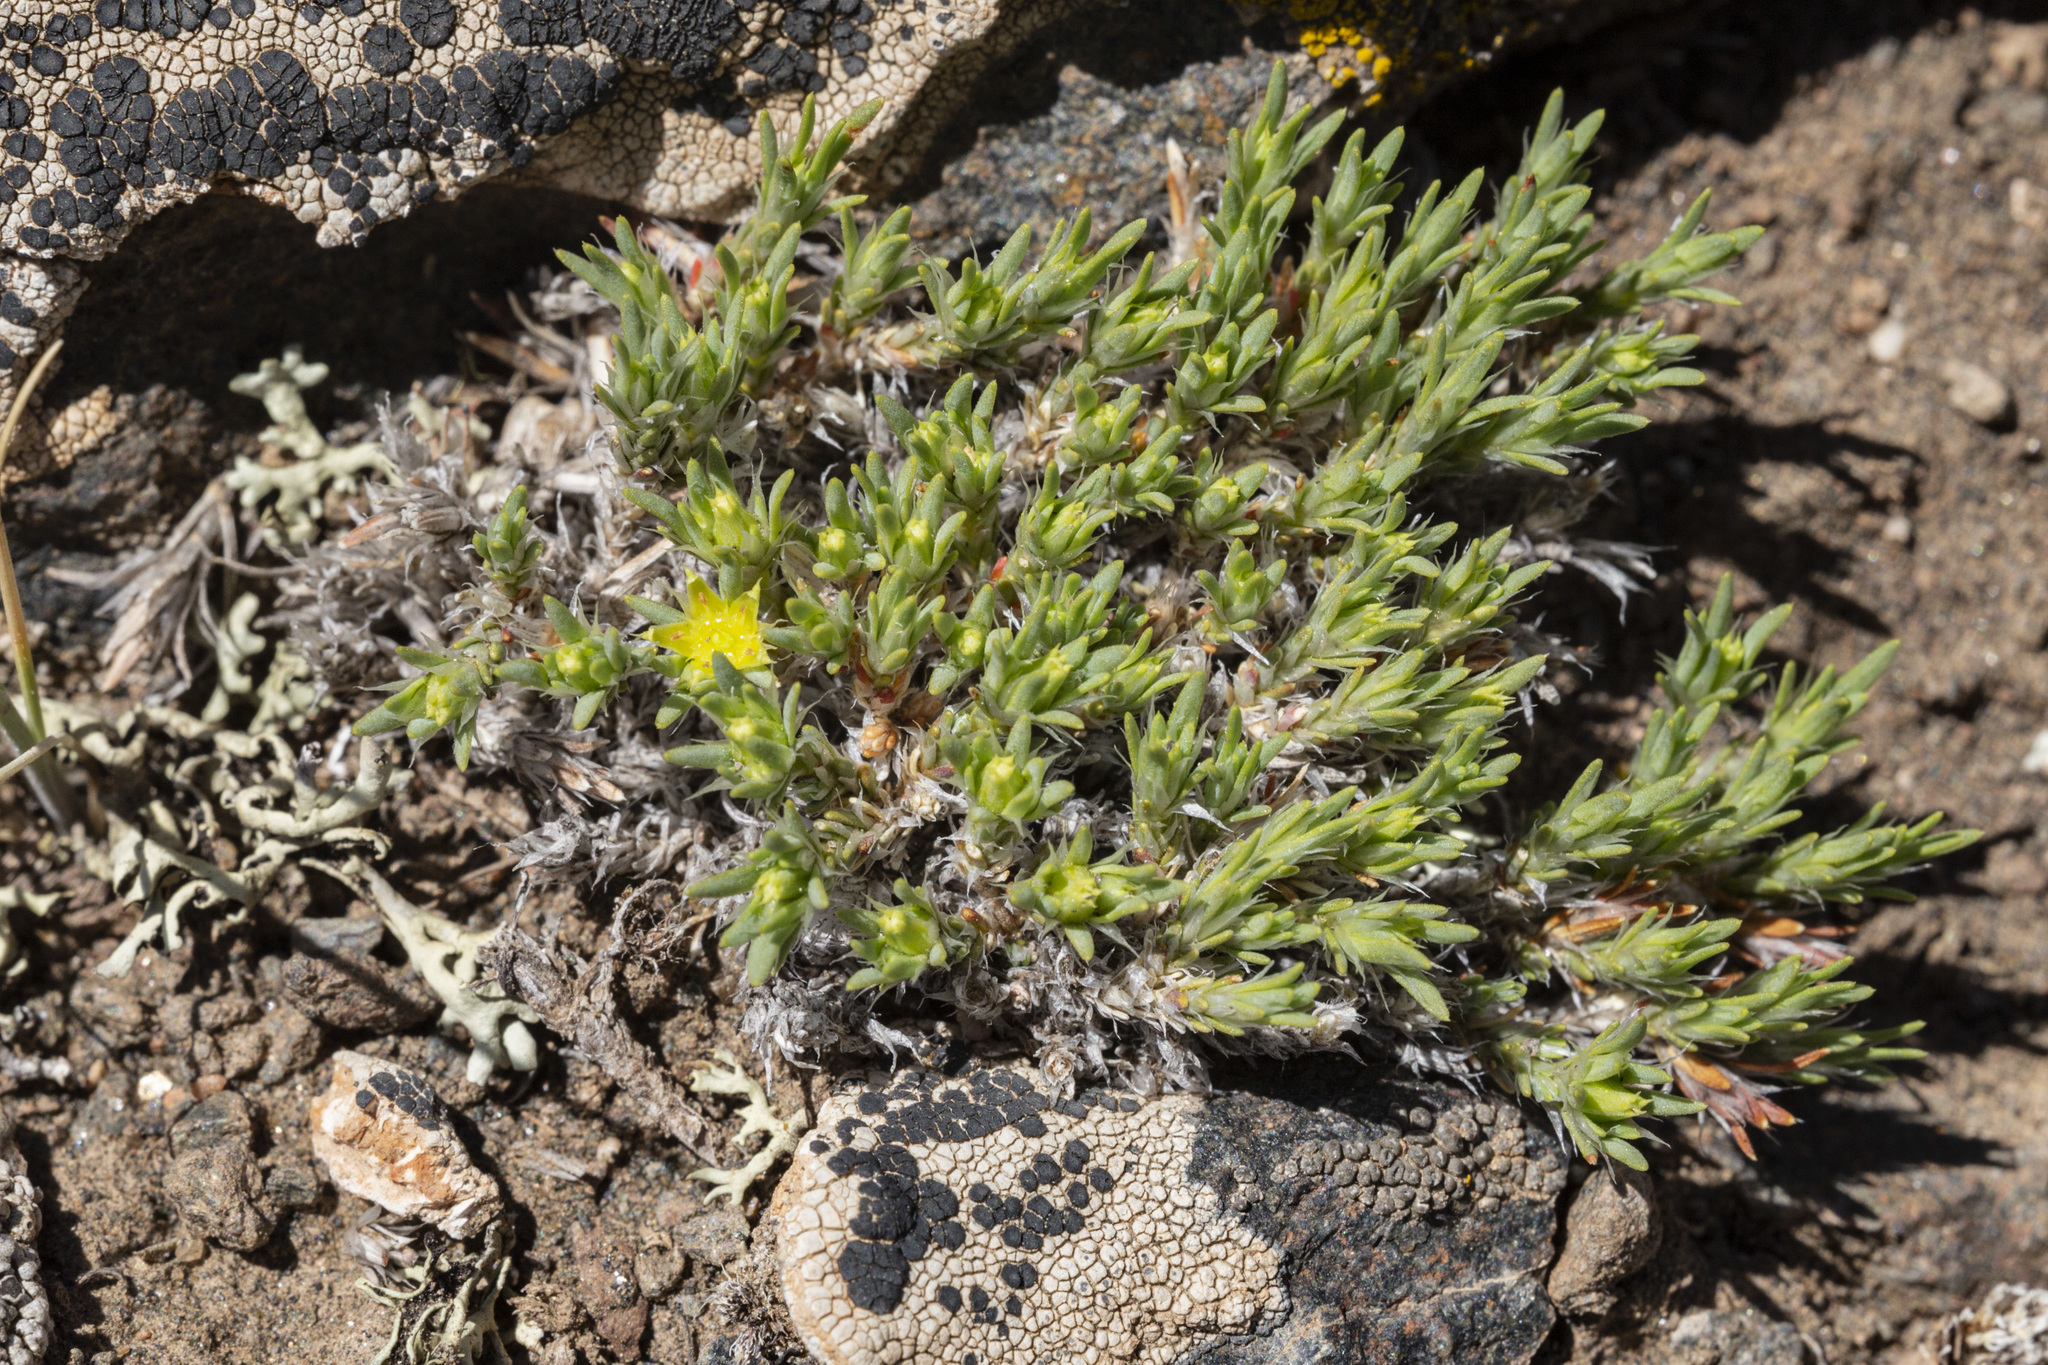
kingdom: Plantae
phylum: Tracheophyta
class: Magnoliopsida
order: Caryophyllales
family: Caryophyllaceae
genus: Paronychia
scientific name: Paronychia sessiliflora
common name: Creeping nailwort
